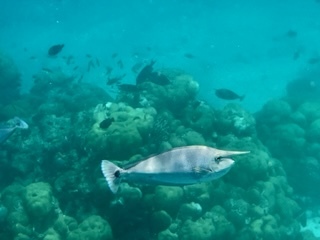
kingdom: Animalia
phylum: Chordata
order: Perciformes
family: Acanthuridae
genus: Naso
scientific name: Naso brevirostris
